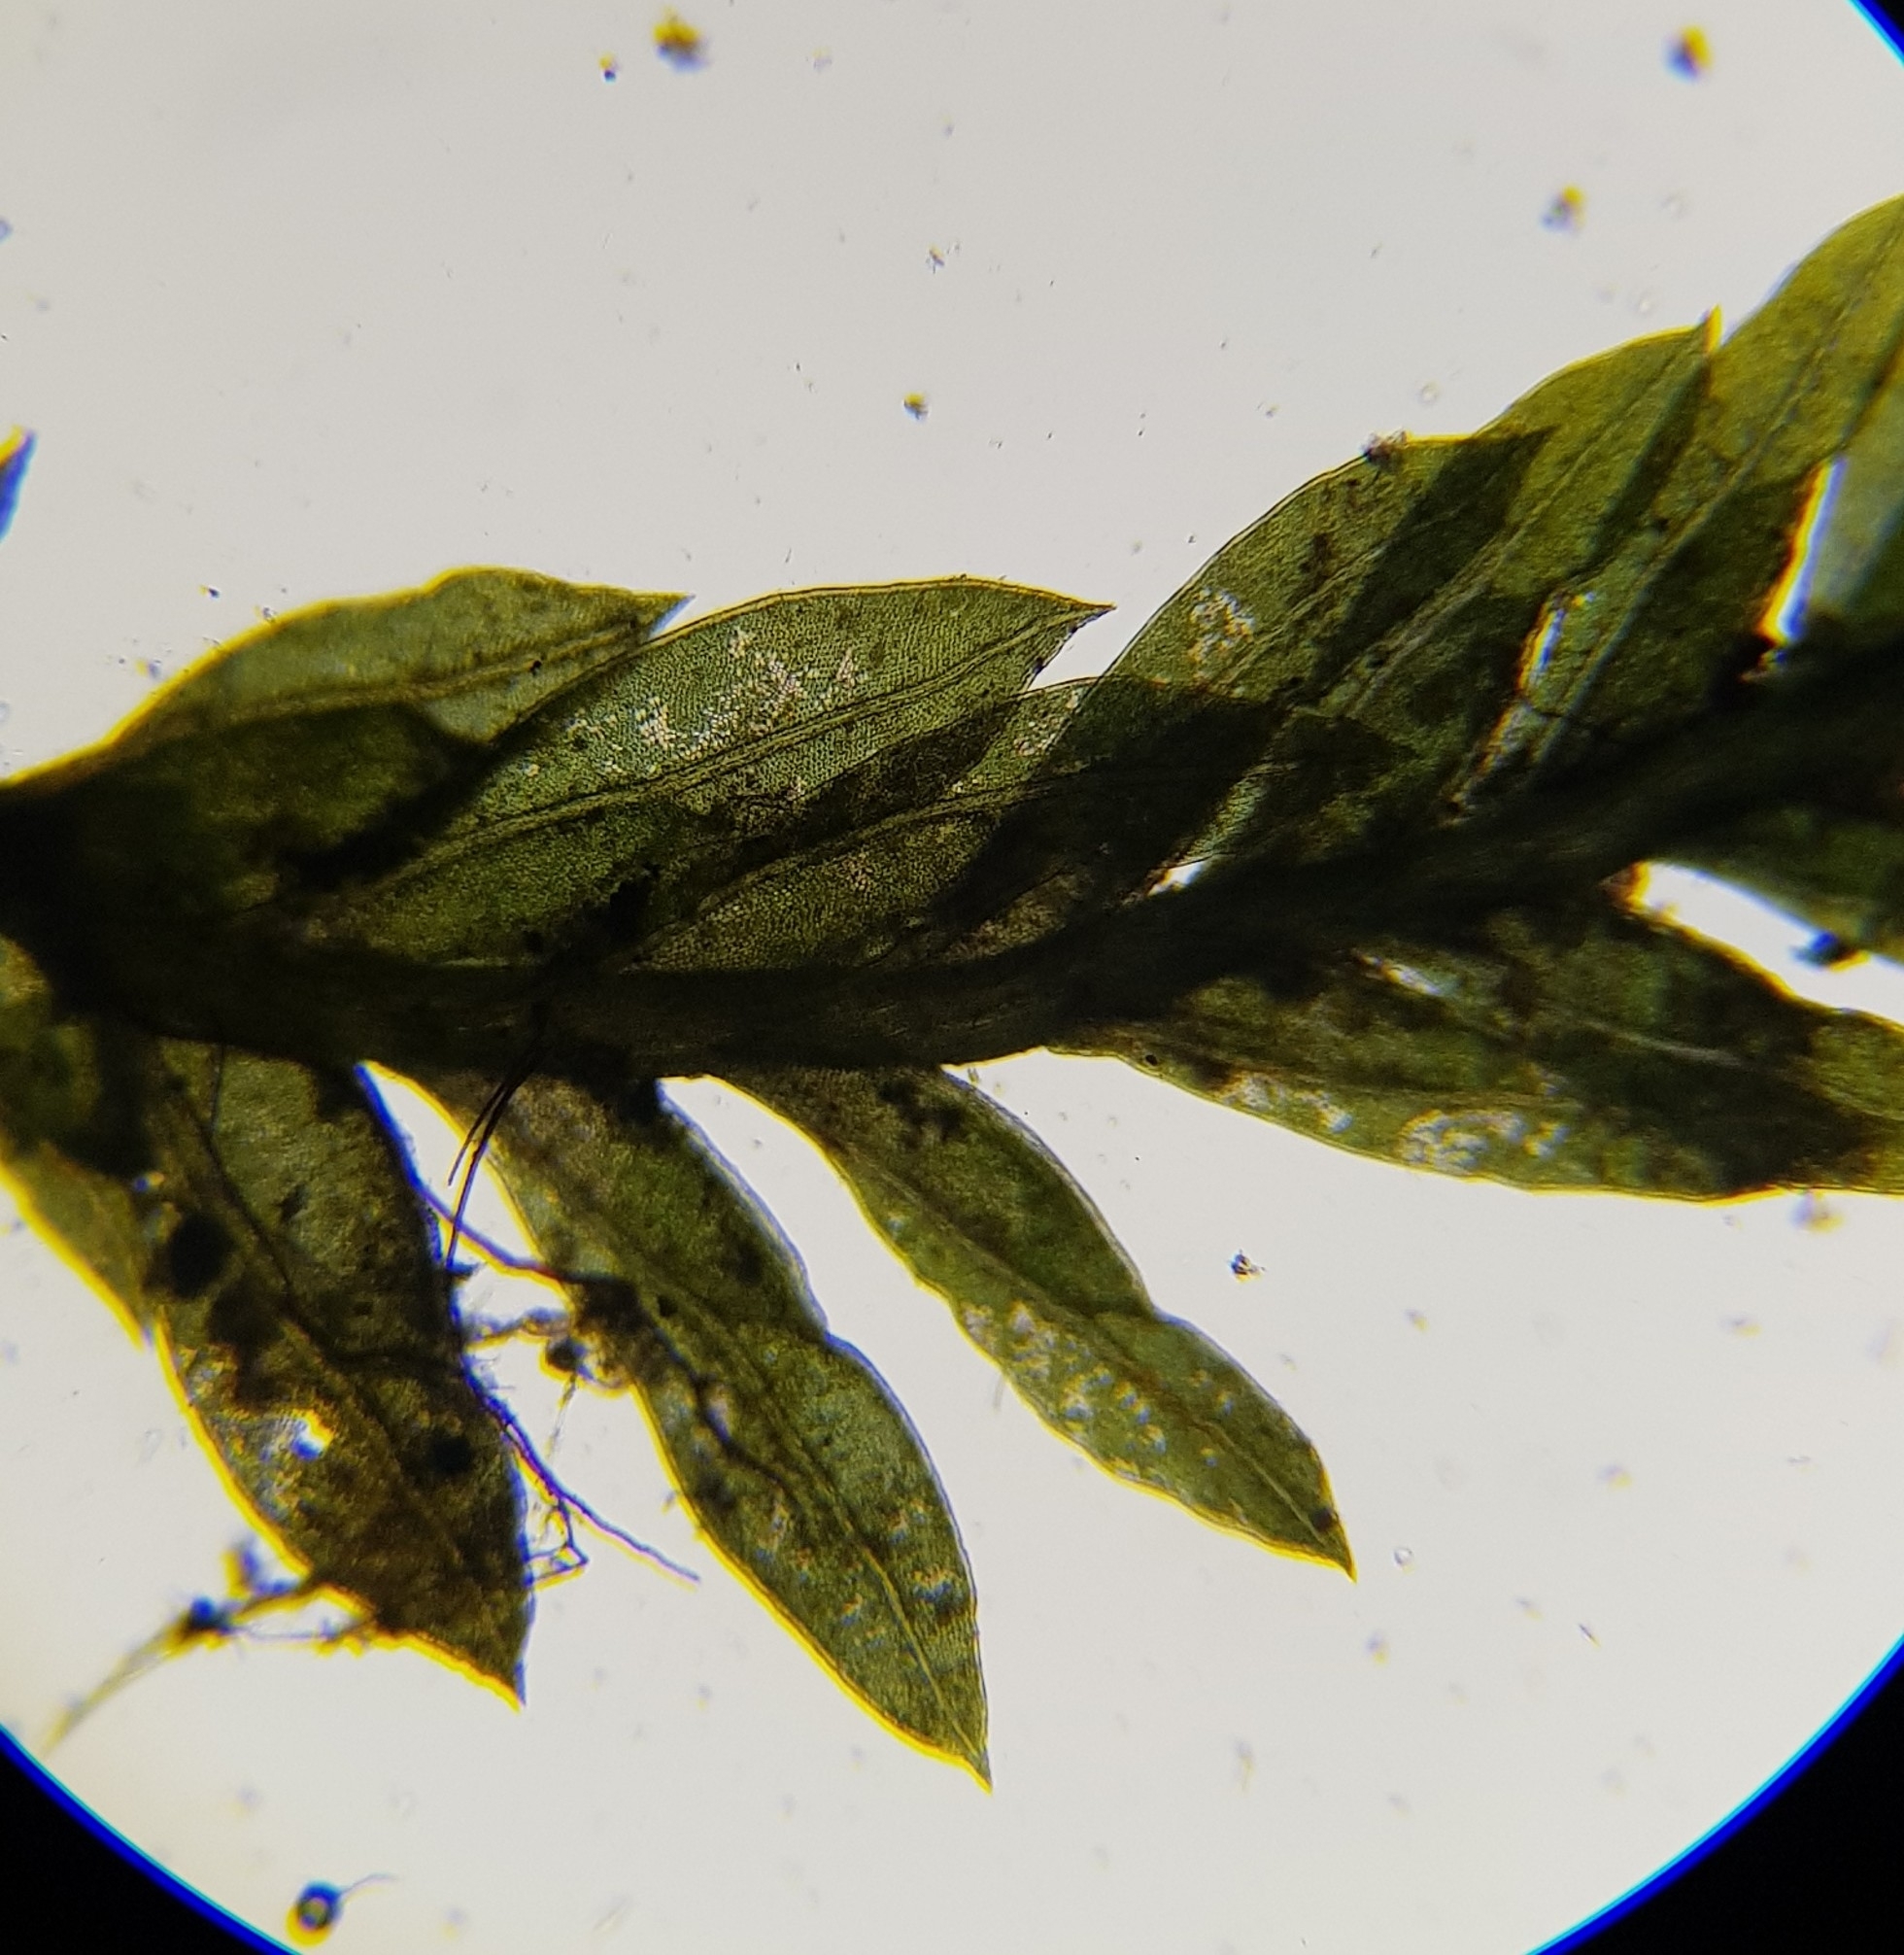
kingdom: Plantae
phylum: Bryophyta
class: Bryopsida
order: Dicranales
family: Fissidentaceae
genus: Fissidens
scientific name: Fissidens bryoides
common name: Lesser pocket moss
